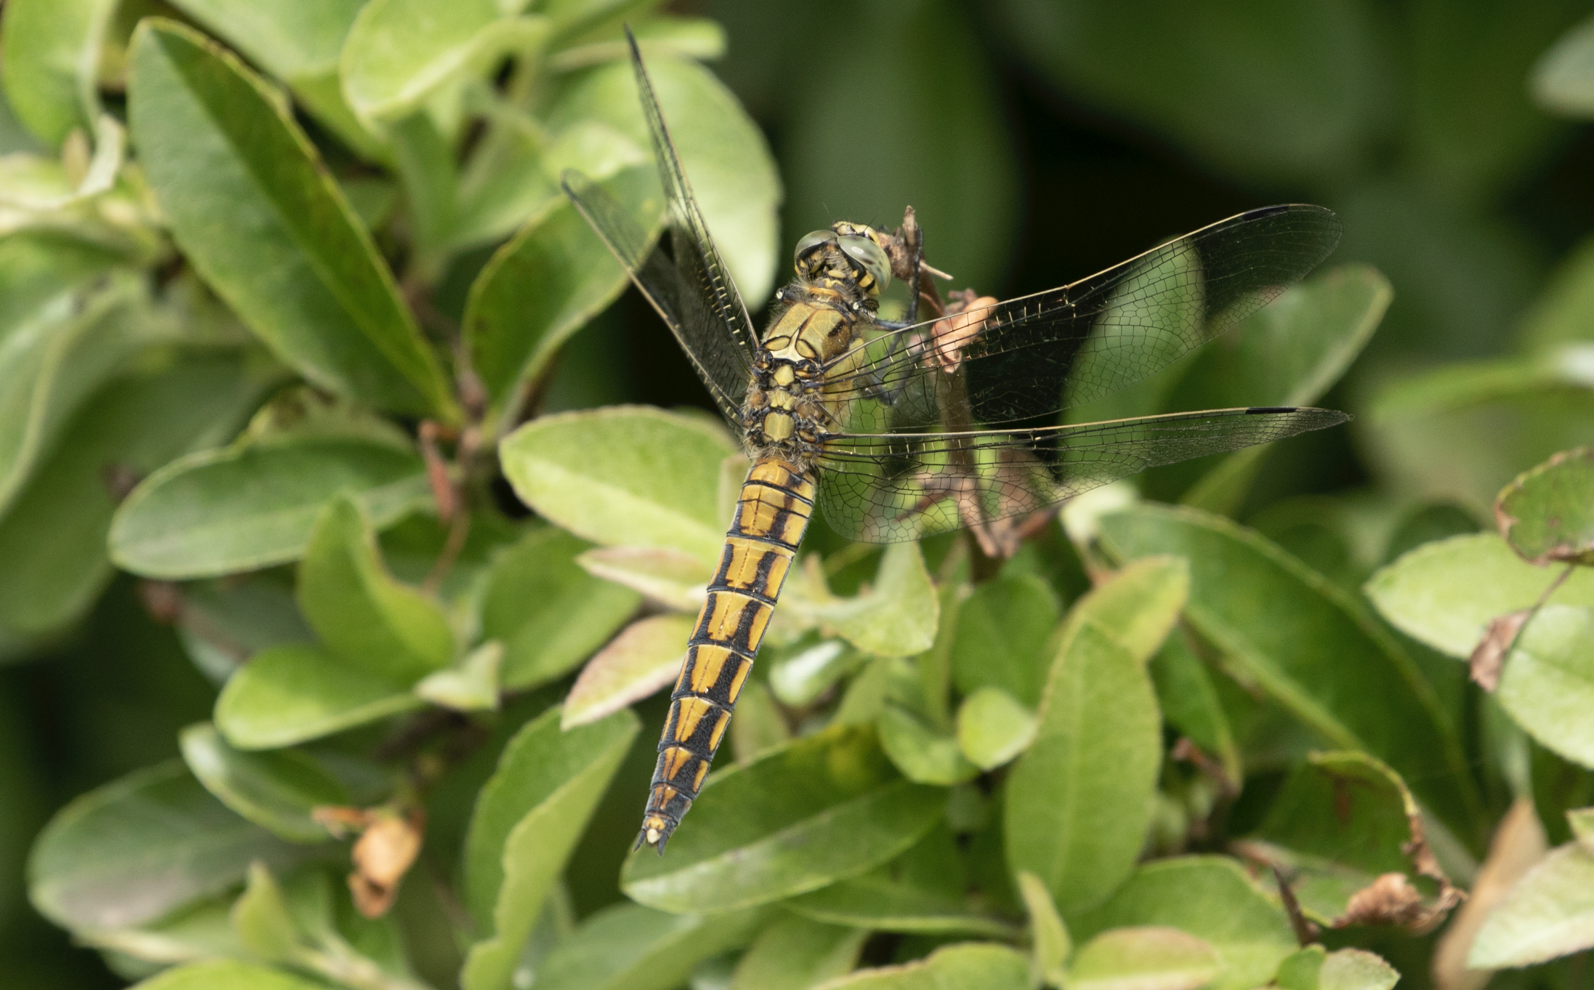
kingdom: Animalia
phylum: Arthropoda
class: Insecta
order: Odonata
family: Libellulidae
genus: Orthetrum
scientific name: Orthetrum cancellatum
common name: Black-tailed skimmer
